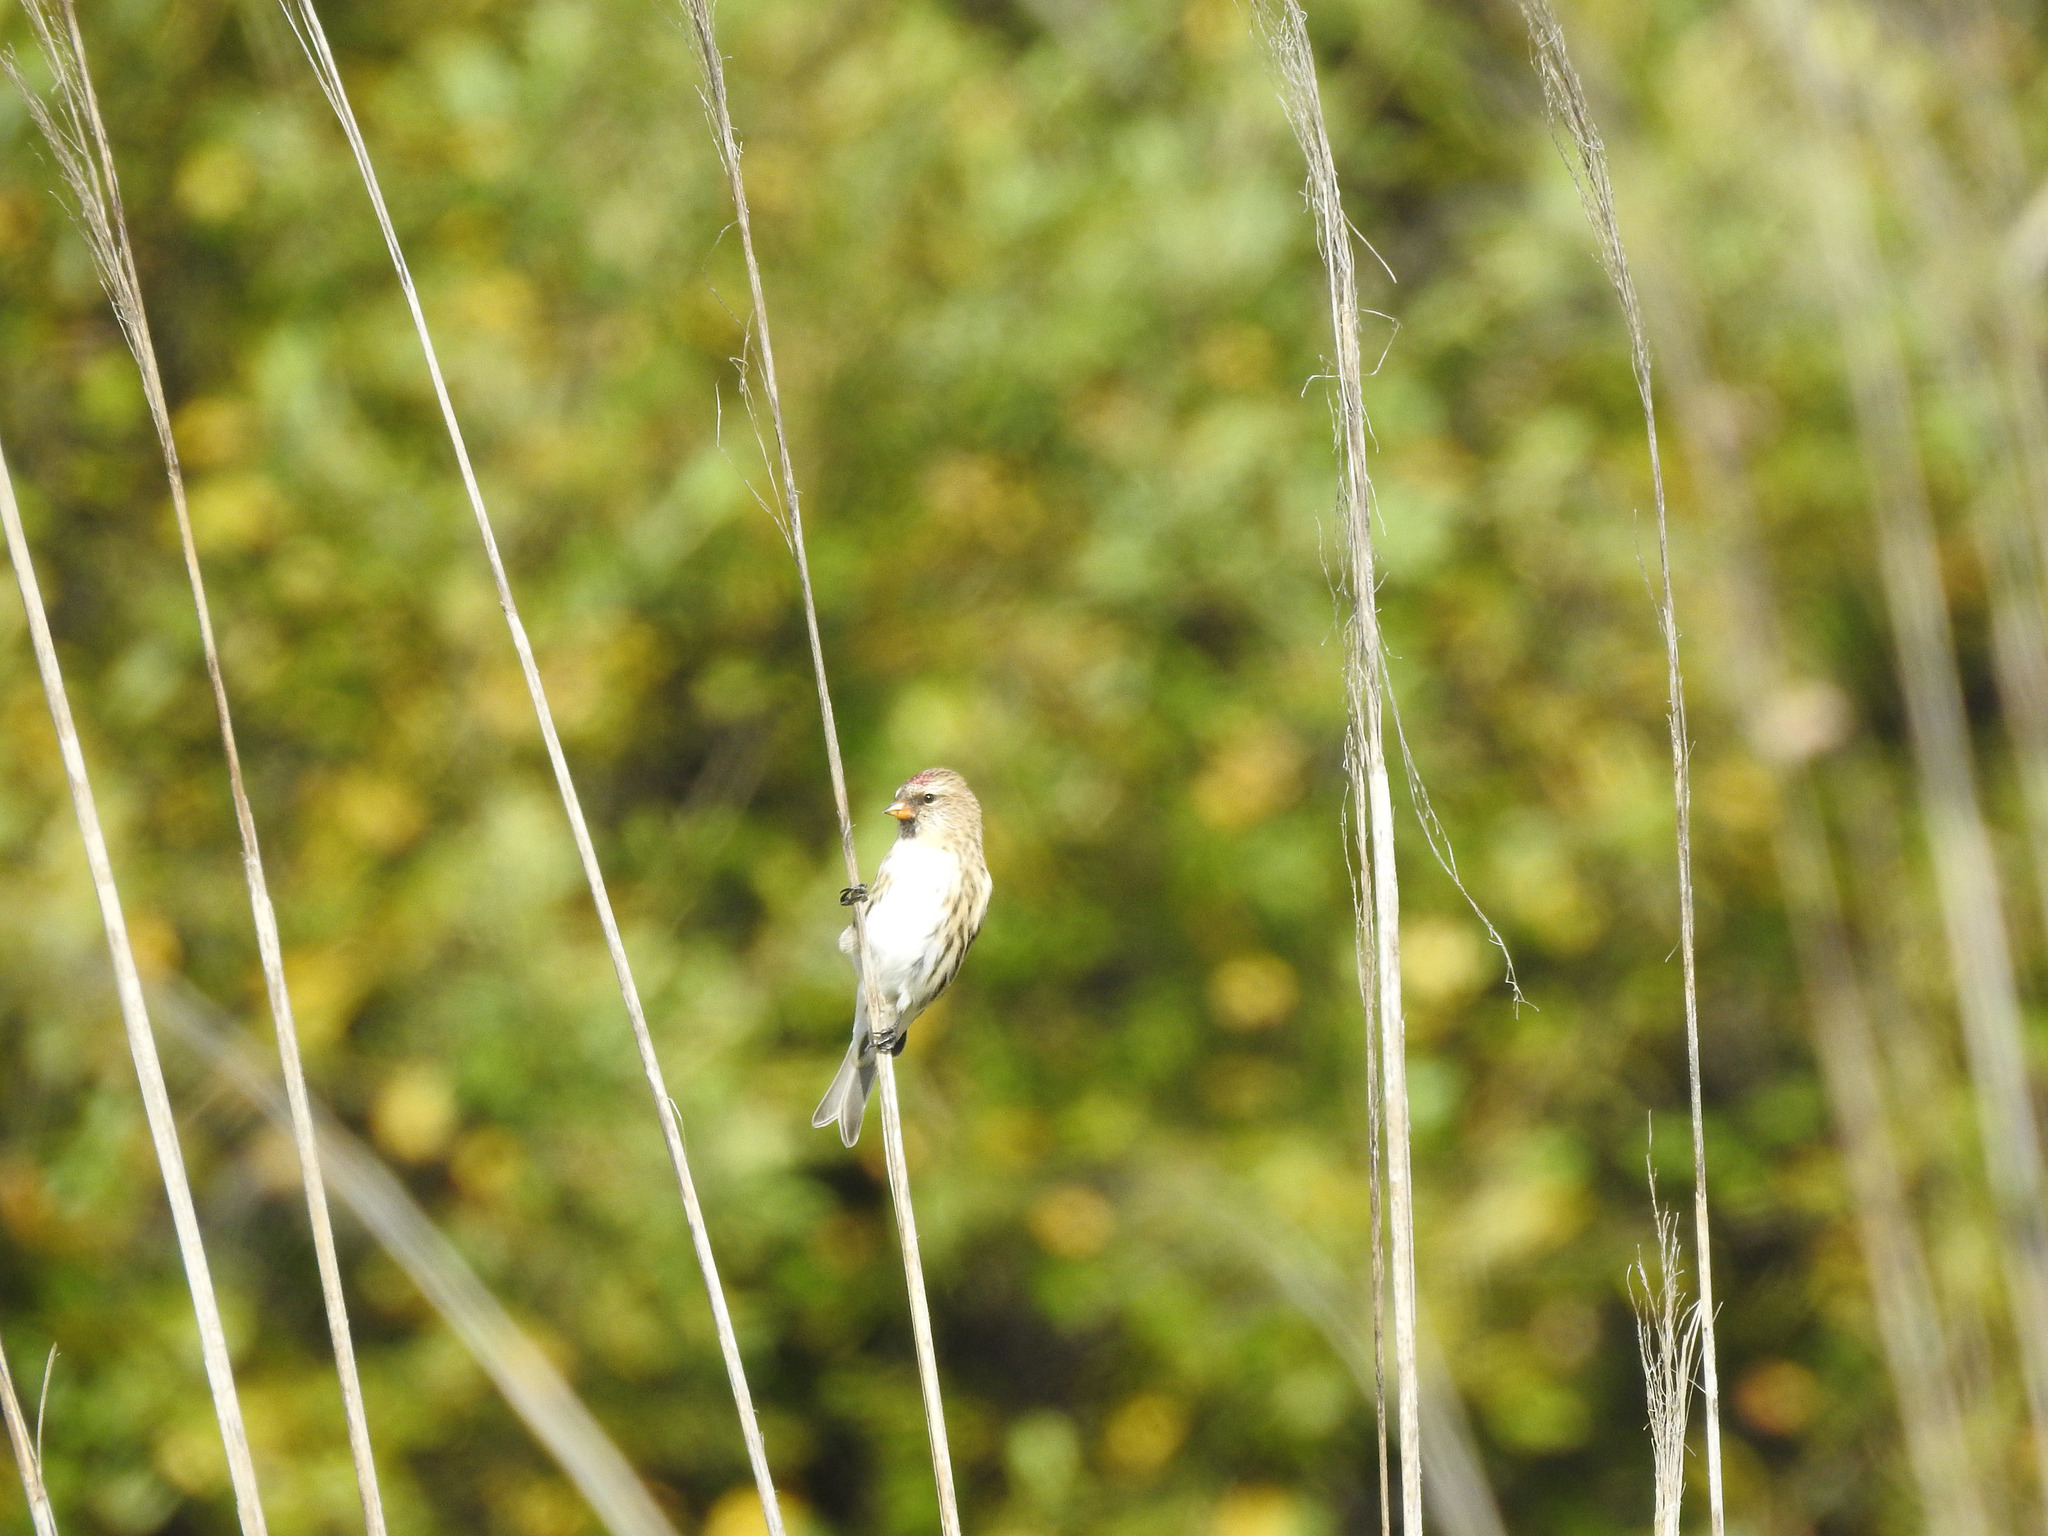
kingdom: Animalia
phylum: Chordata
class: Aves
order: Passeriformes
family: Fringillidae
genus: Acanthis
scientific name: Acanthis flammea
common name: Common redpoll
